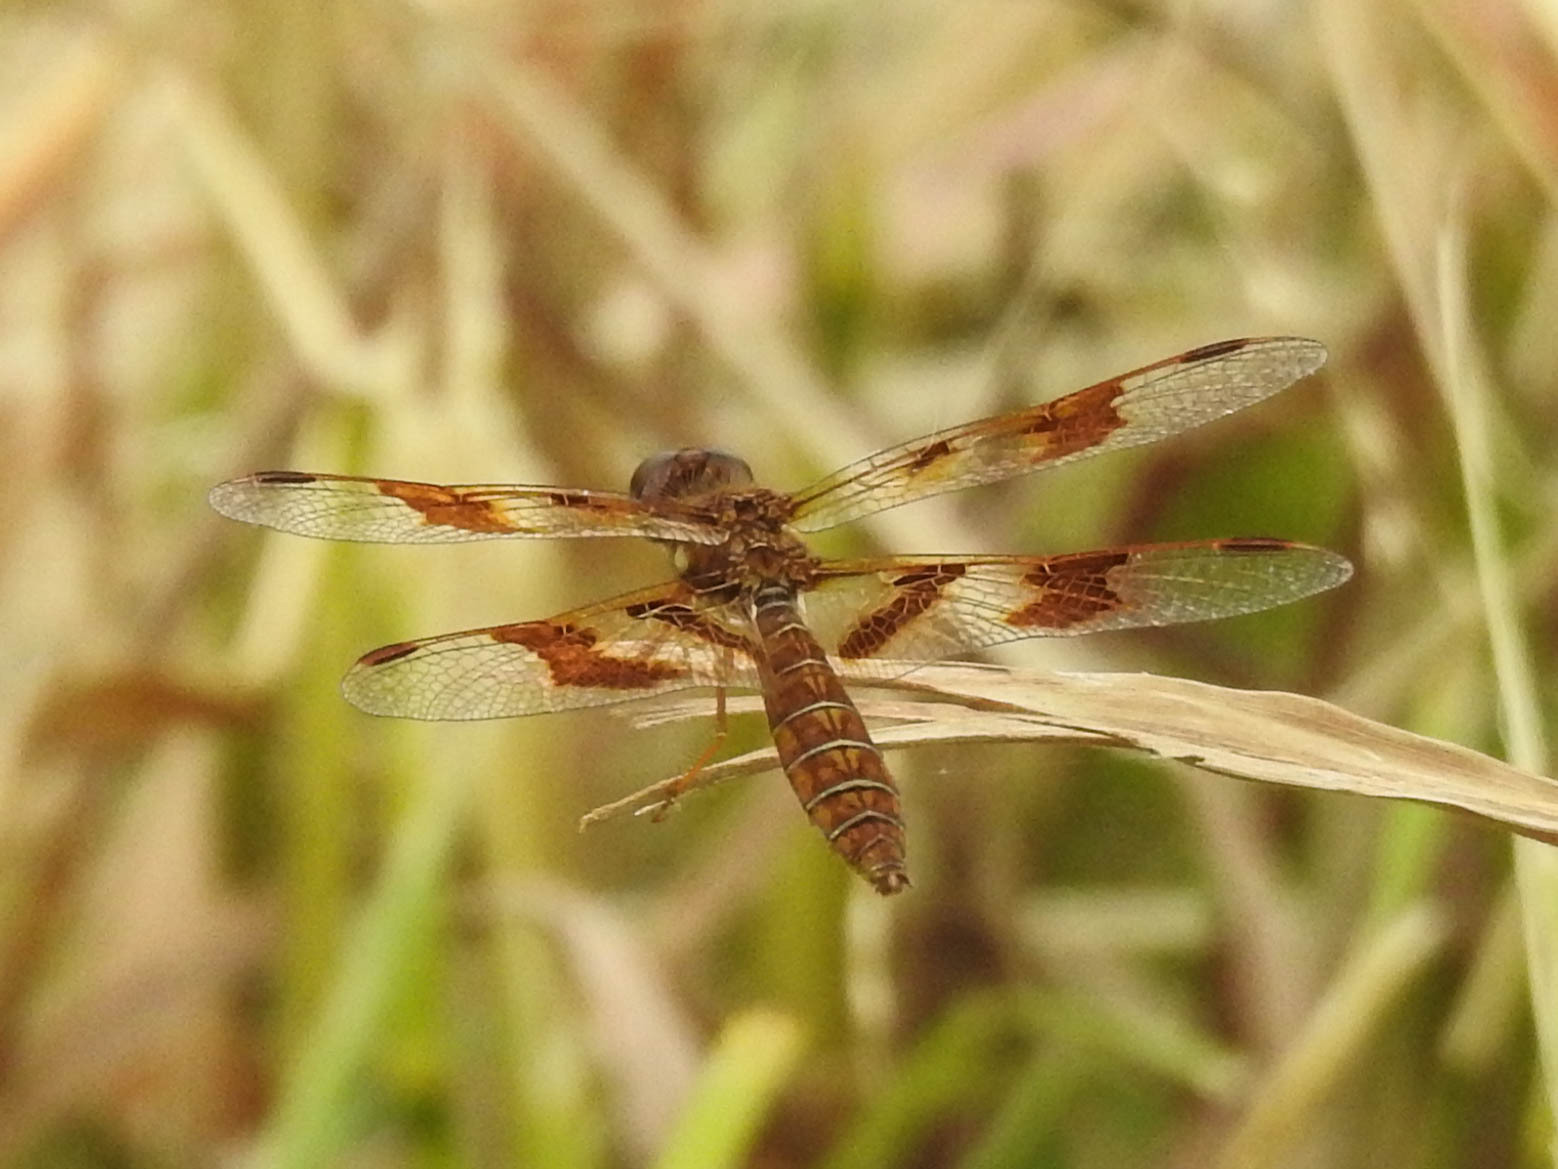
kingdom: Animalia
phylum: Arthropoda
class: Insecta
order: Odonata
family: Libellulidae
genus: Perithemis
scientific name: Perithemis tenera
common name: Eastern amberwing
